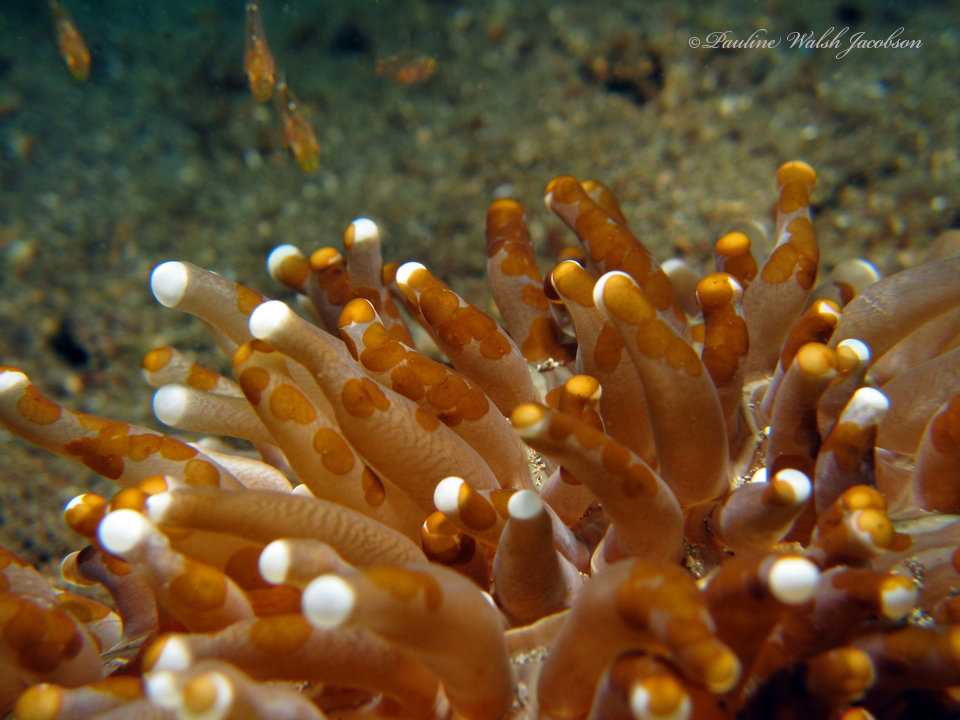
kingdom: Animalia
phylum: Cnidaria
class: Anthozoa
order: Scleractinia
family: Fungiidae
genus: Heliofungia
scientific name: Heliofungia actiniformis
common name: Plate coral
